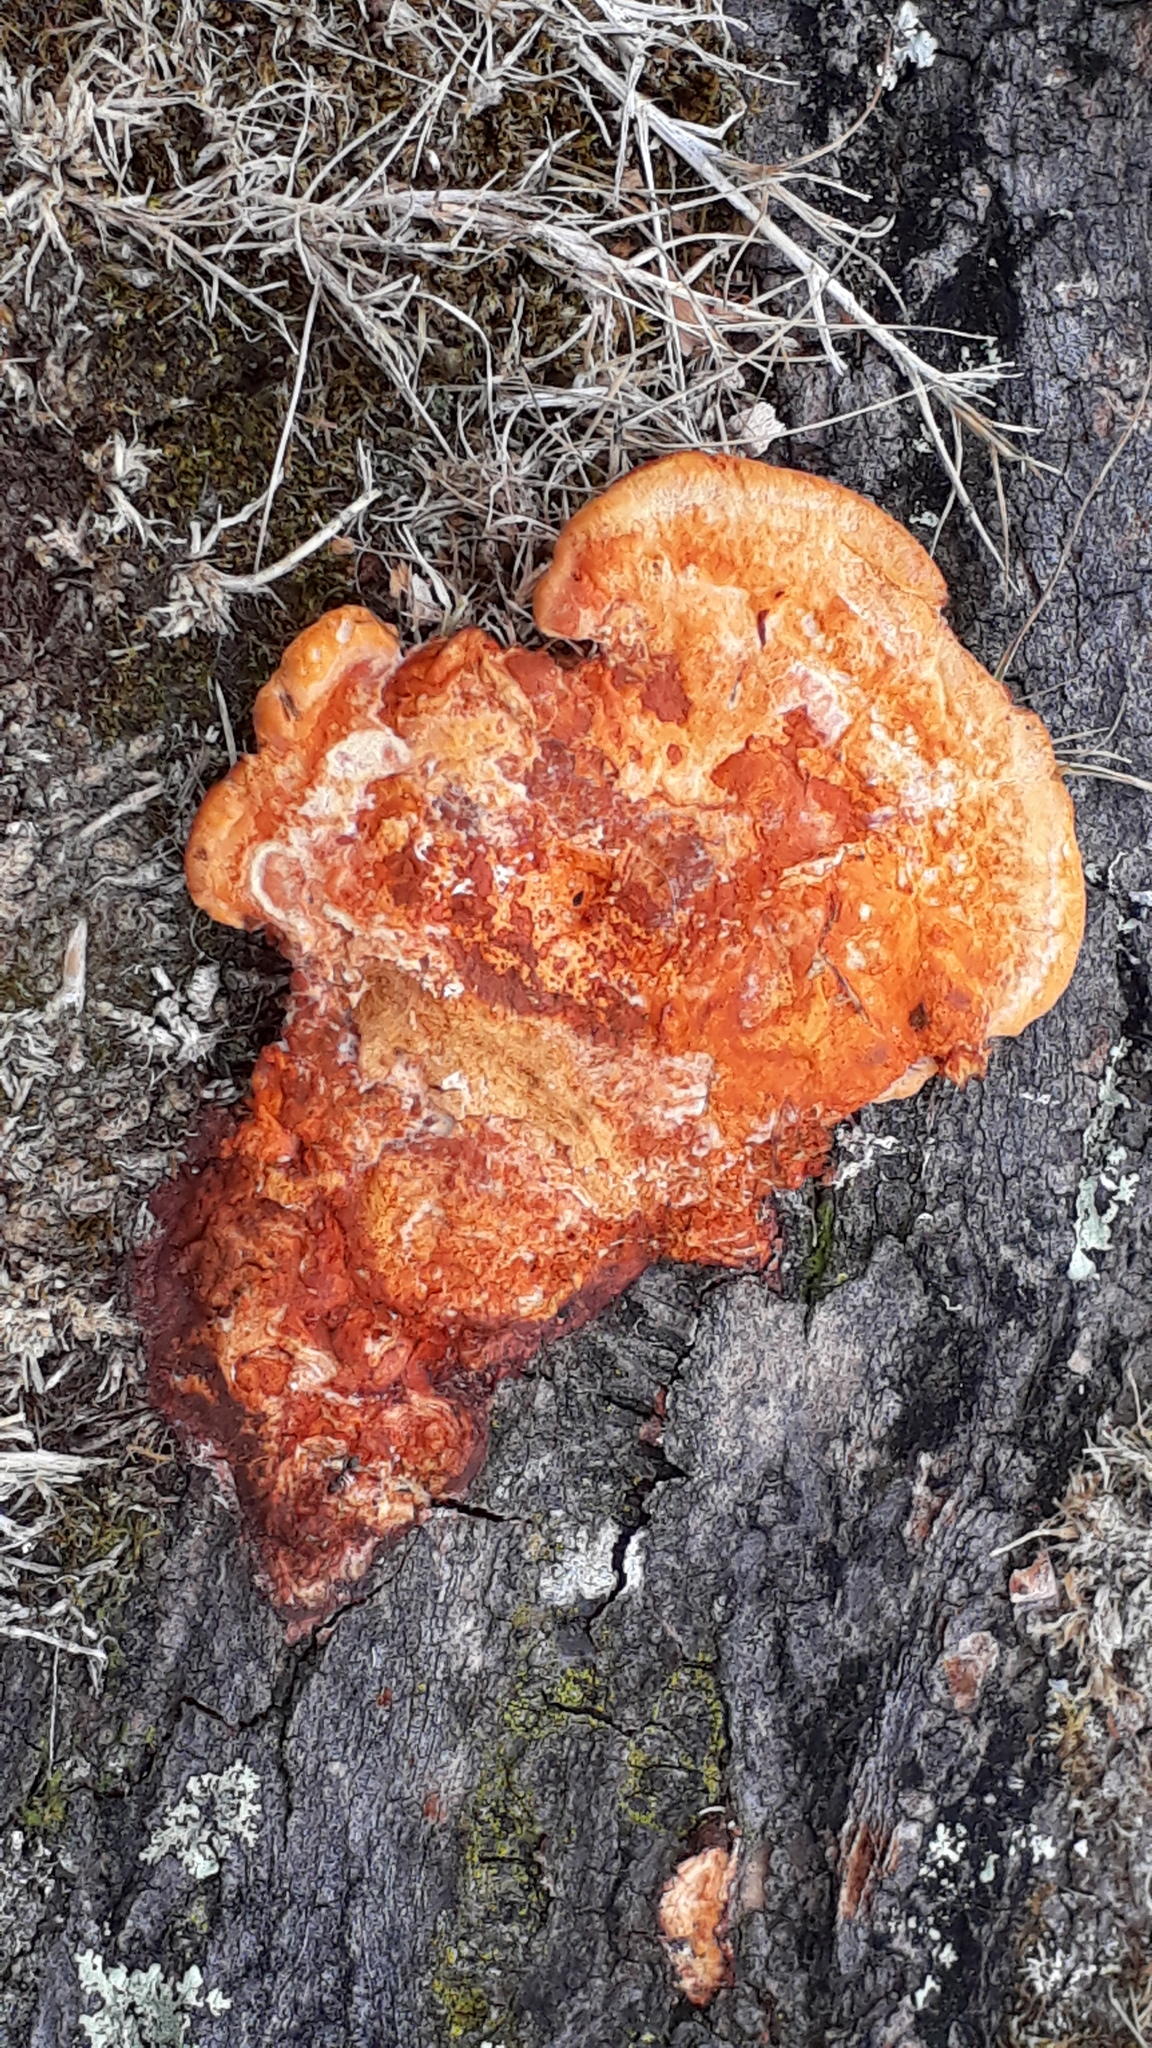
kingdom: Fungi
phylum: Basidiomycota
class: Agaricomycetes
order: Polyporales
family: Polyporaceae
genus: Trametes
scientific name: Trametes coccinea
